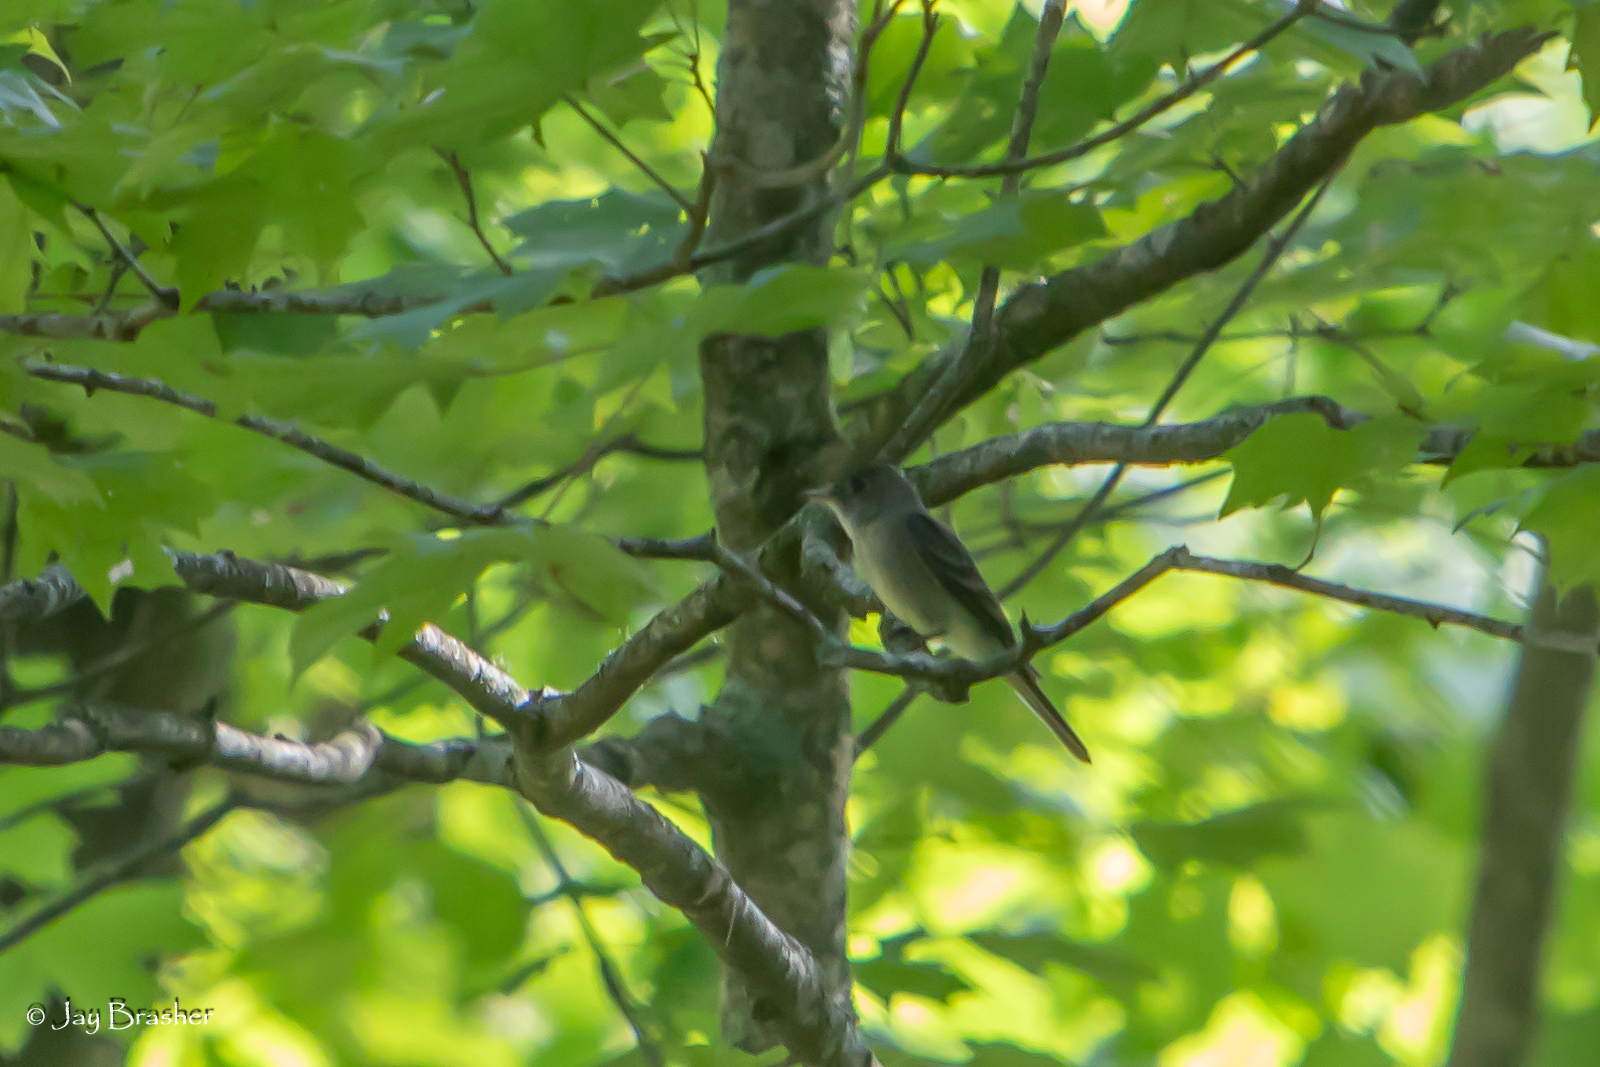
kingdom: Animalia
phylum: Chordata
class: Aves
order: Passeriformes
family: Tyrannidae
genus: Contopus
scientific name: Contopus virens
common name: Eastern wood-pewee
